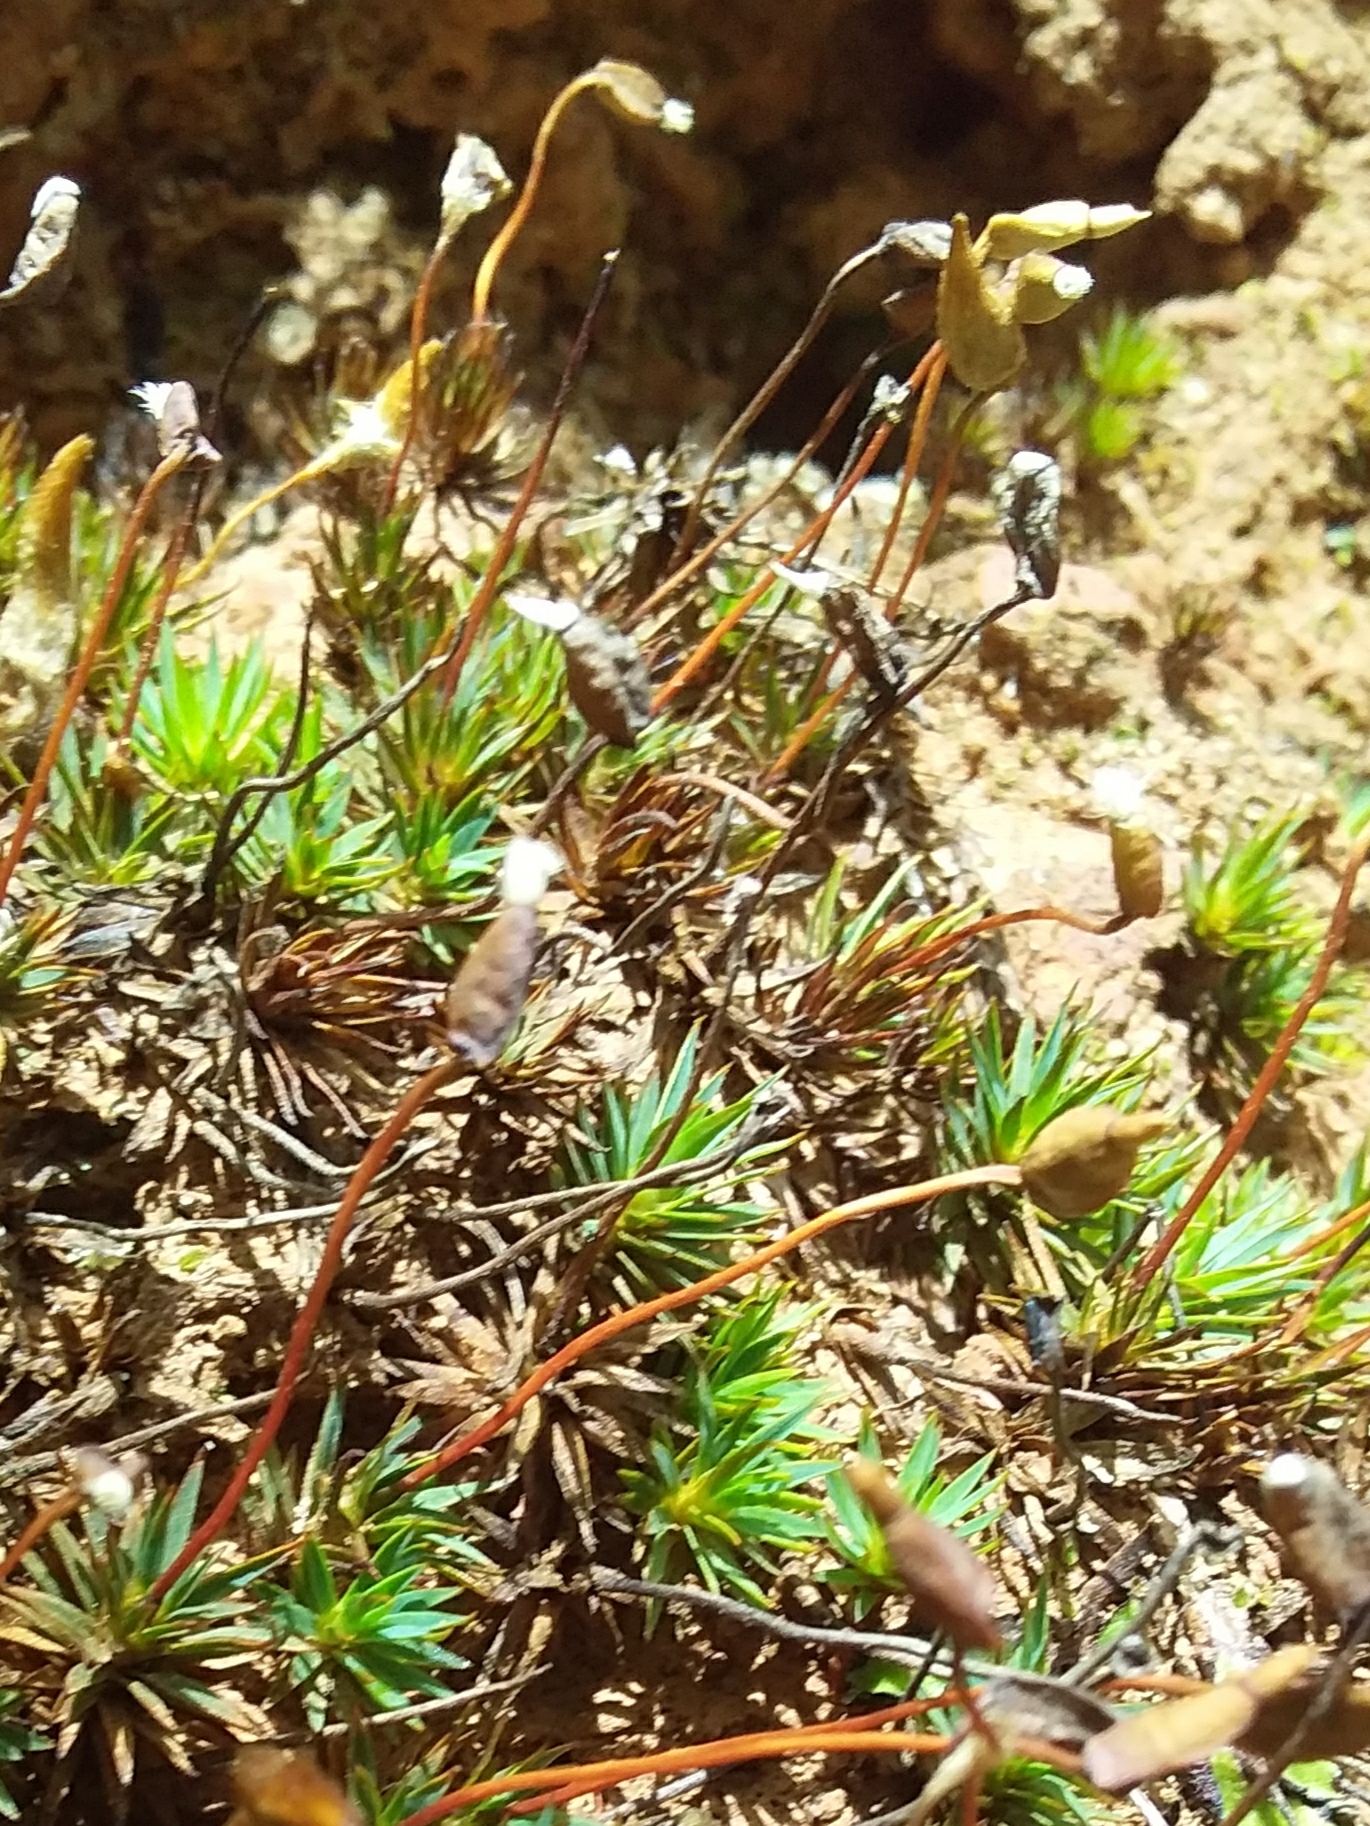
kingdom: Plantae
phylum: Bryophyta
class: Polytrichopsida
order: Polytrichales
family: Polytrichaceae
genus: Polytrichum
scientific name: Polytrichum juniperinum
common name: Juniper haircap moss
